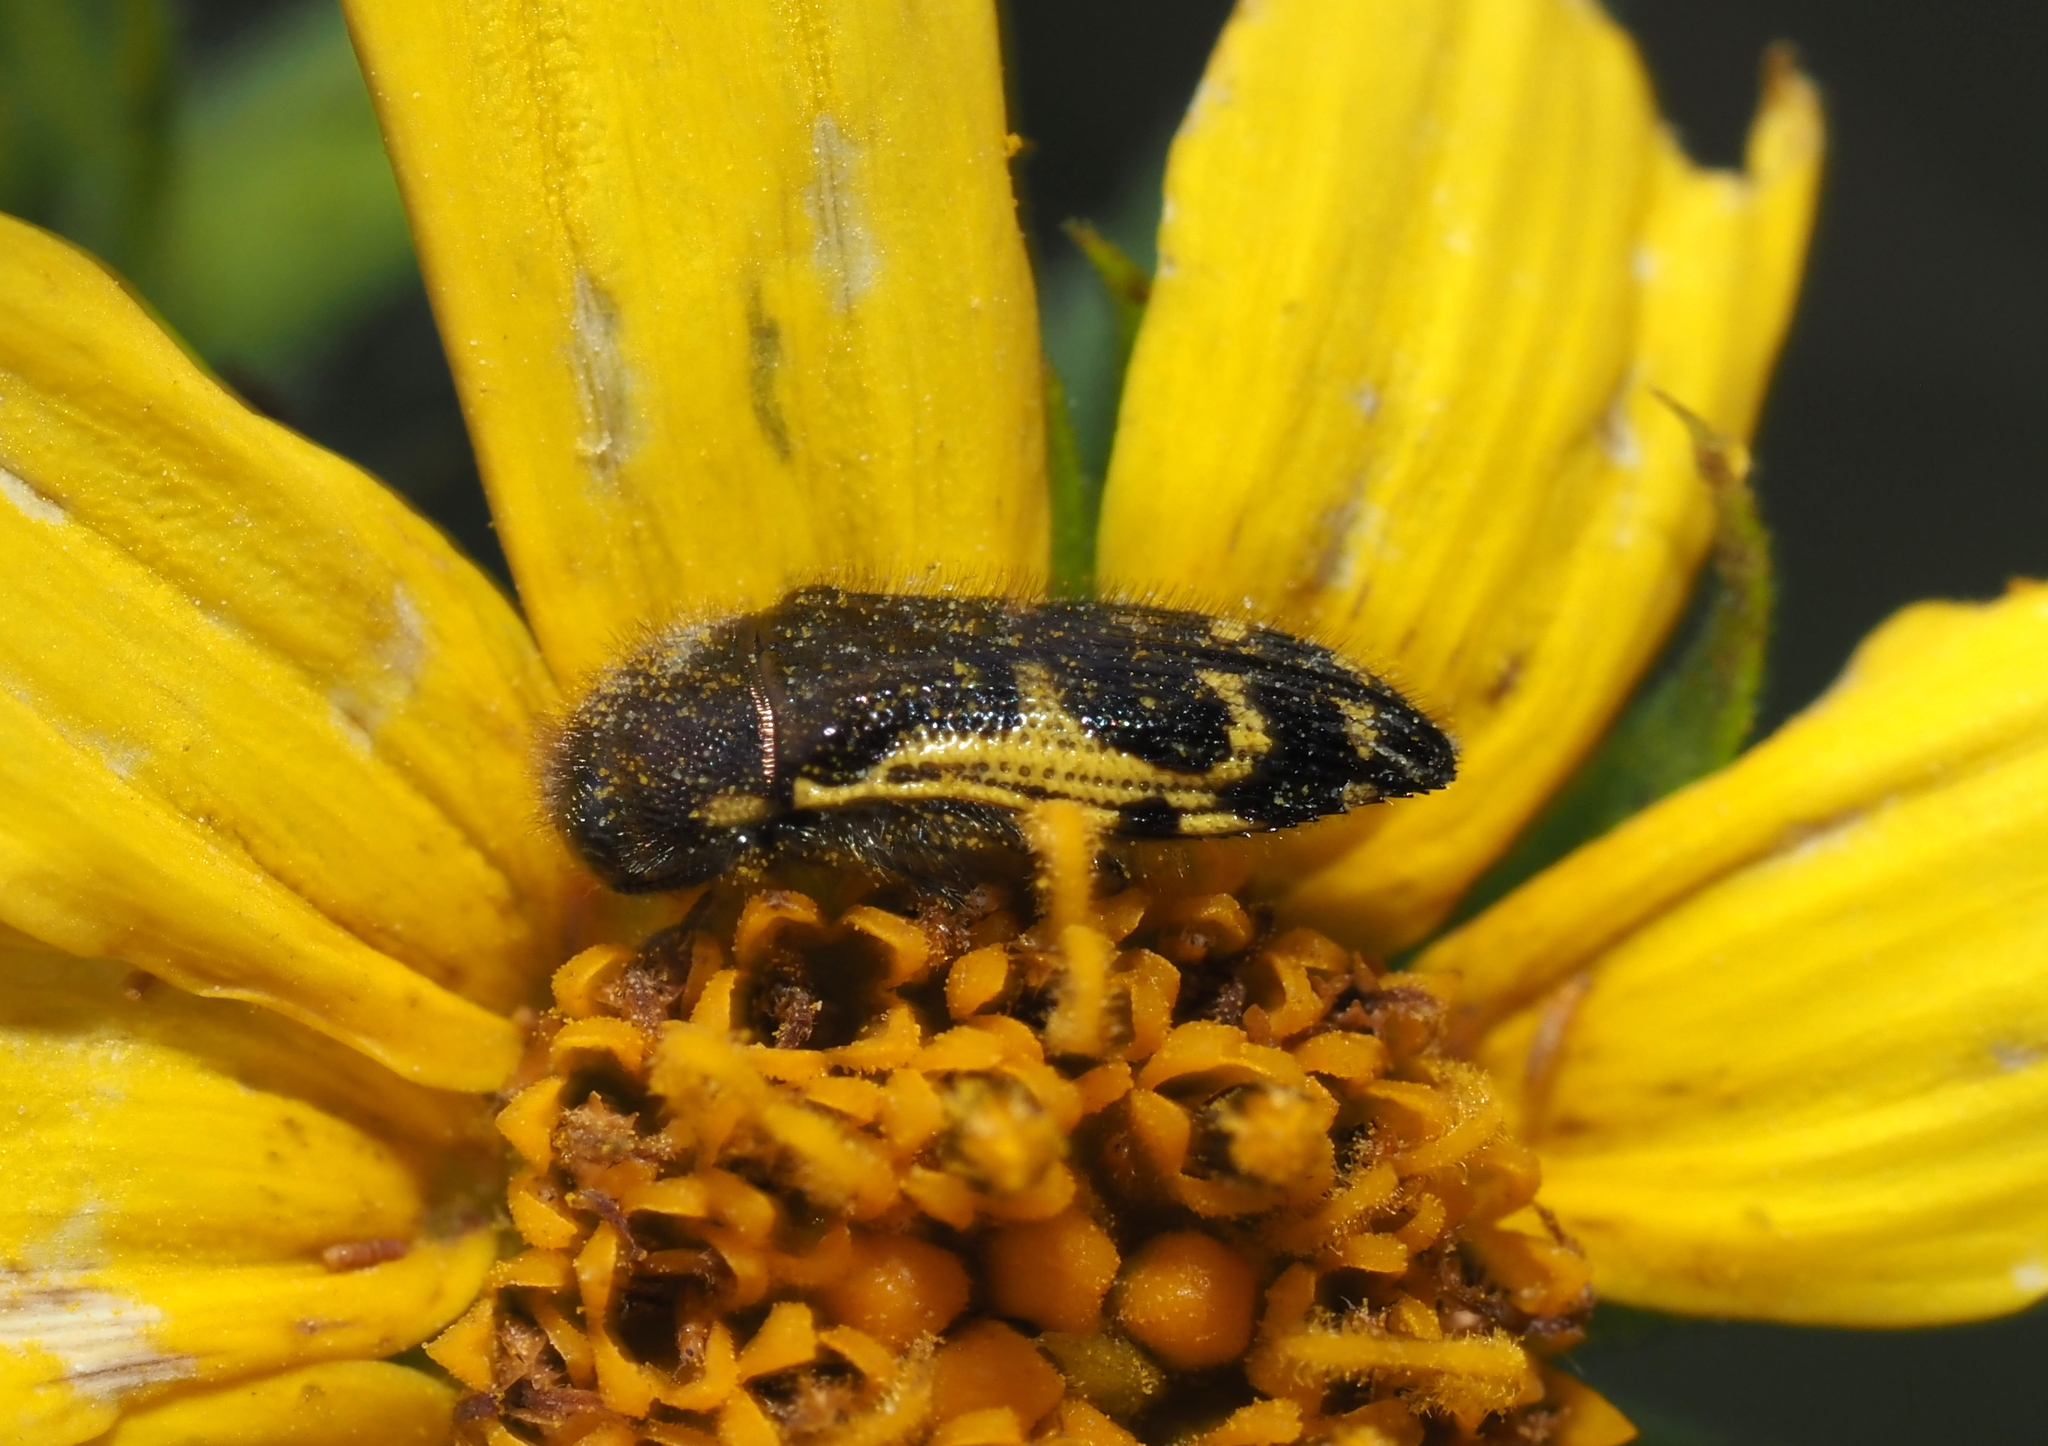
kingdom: Animalia
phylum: Arthropoda
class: Insecta
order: Coleoptera
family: Buprestidae
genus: Acmaeodera
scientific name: Acmaeodera pulchella
